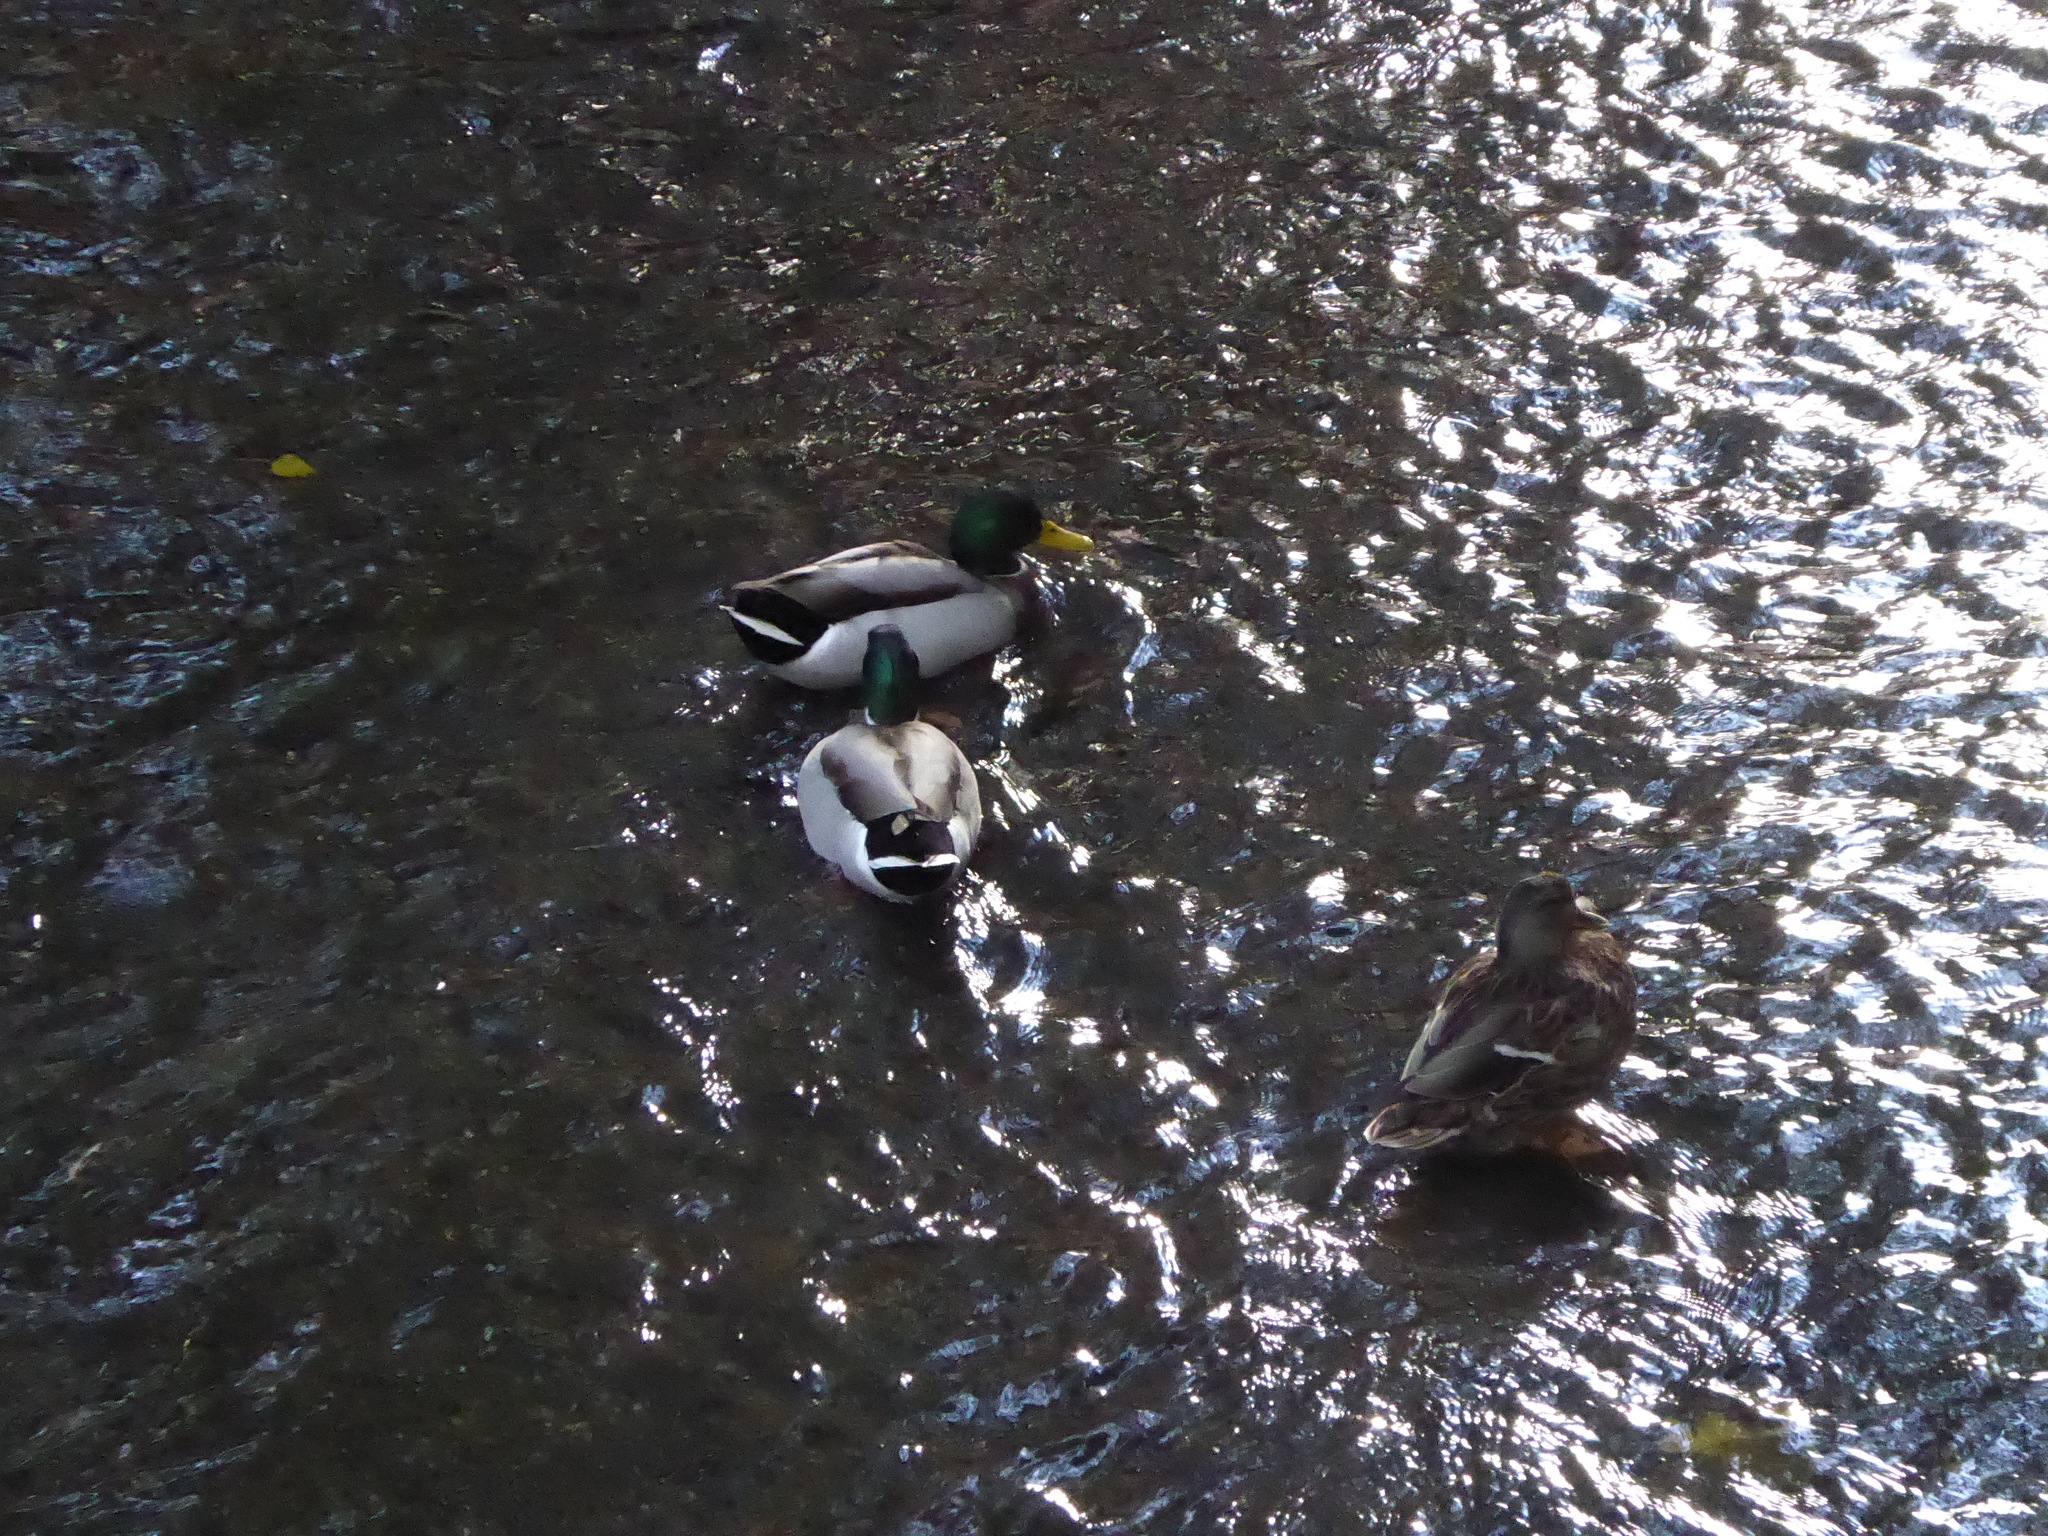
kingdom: Animalia
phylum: Chordata
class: Aves
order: Anseriformes
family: Anatidae
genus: Anas
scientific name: Anas platyrhynchos
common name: Mallard
